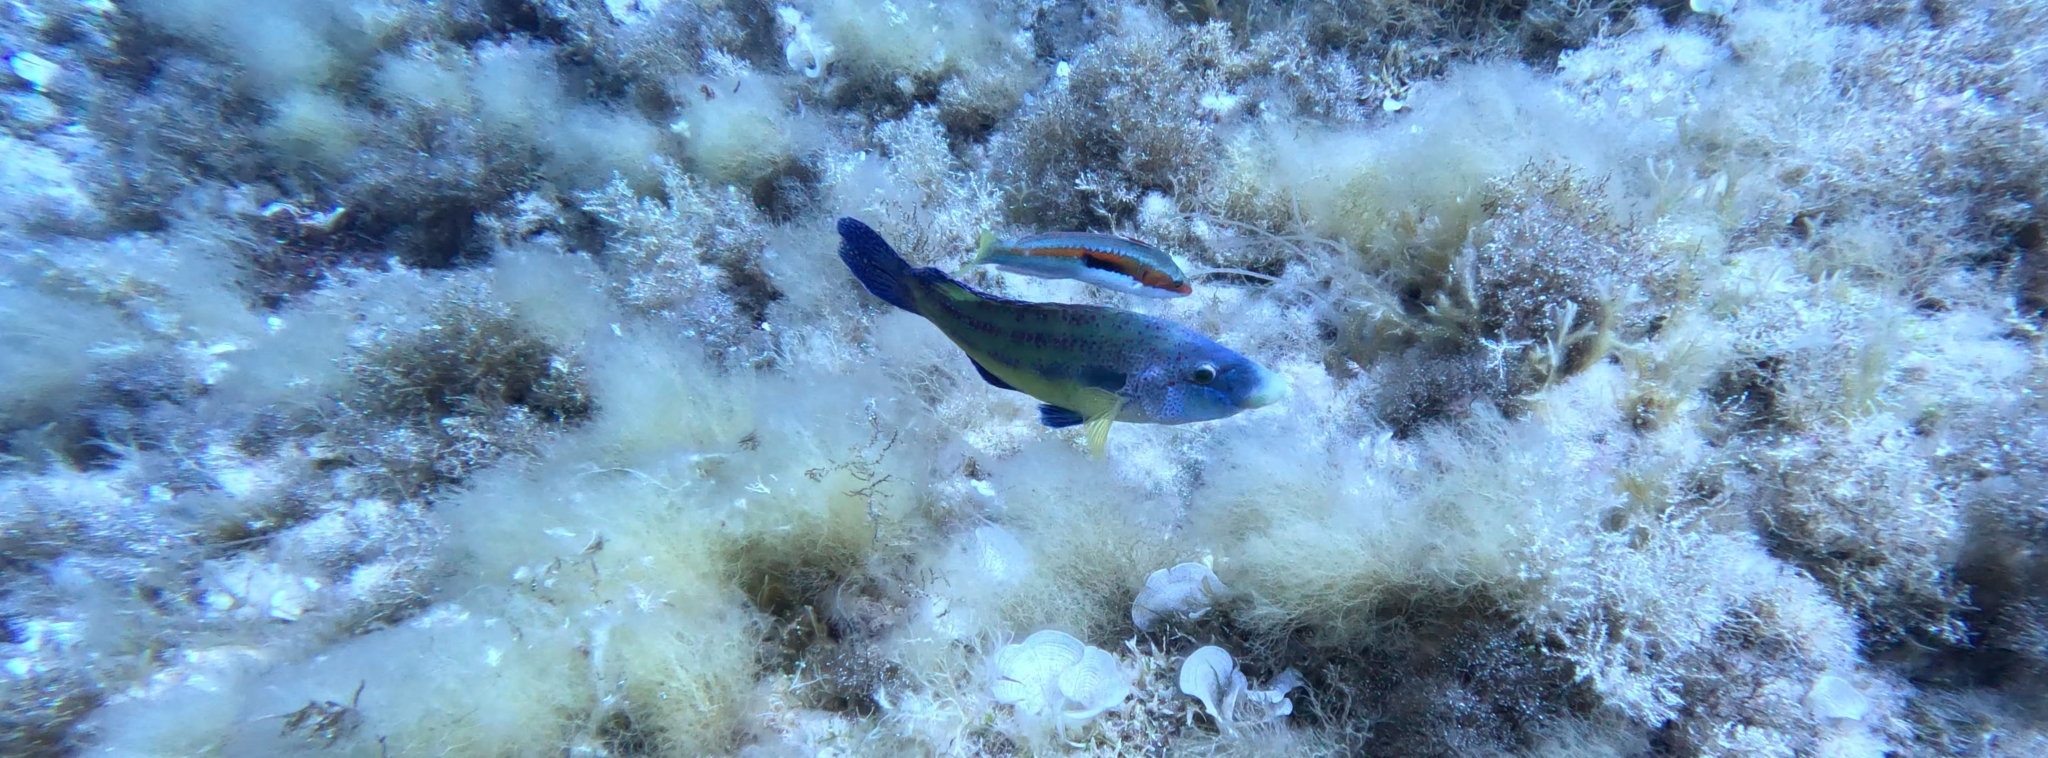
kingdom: Animalia
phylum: Chordata
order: Perciformes
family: Labridae
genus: Symphodus
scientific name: Symphodus tinca
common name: Peacock wrasse
